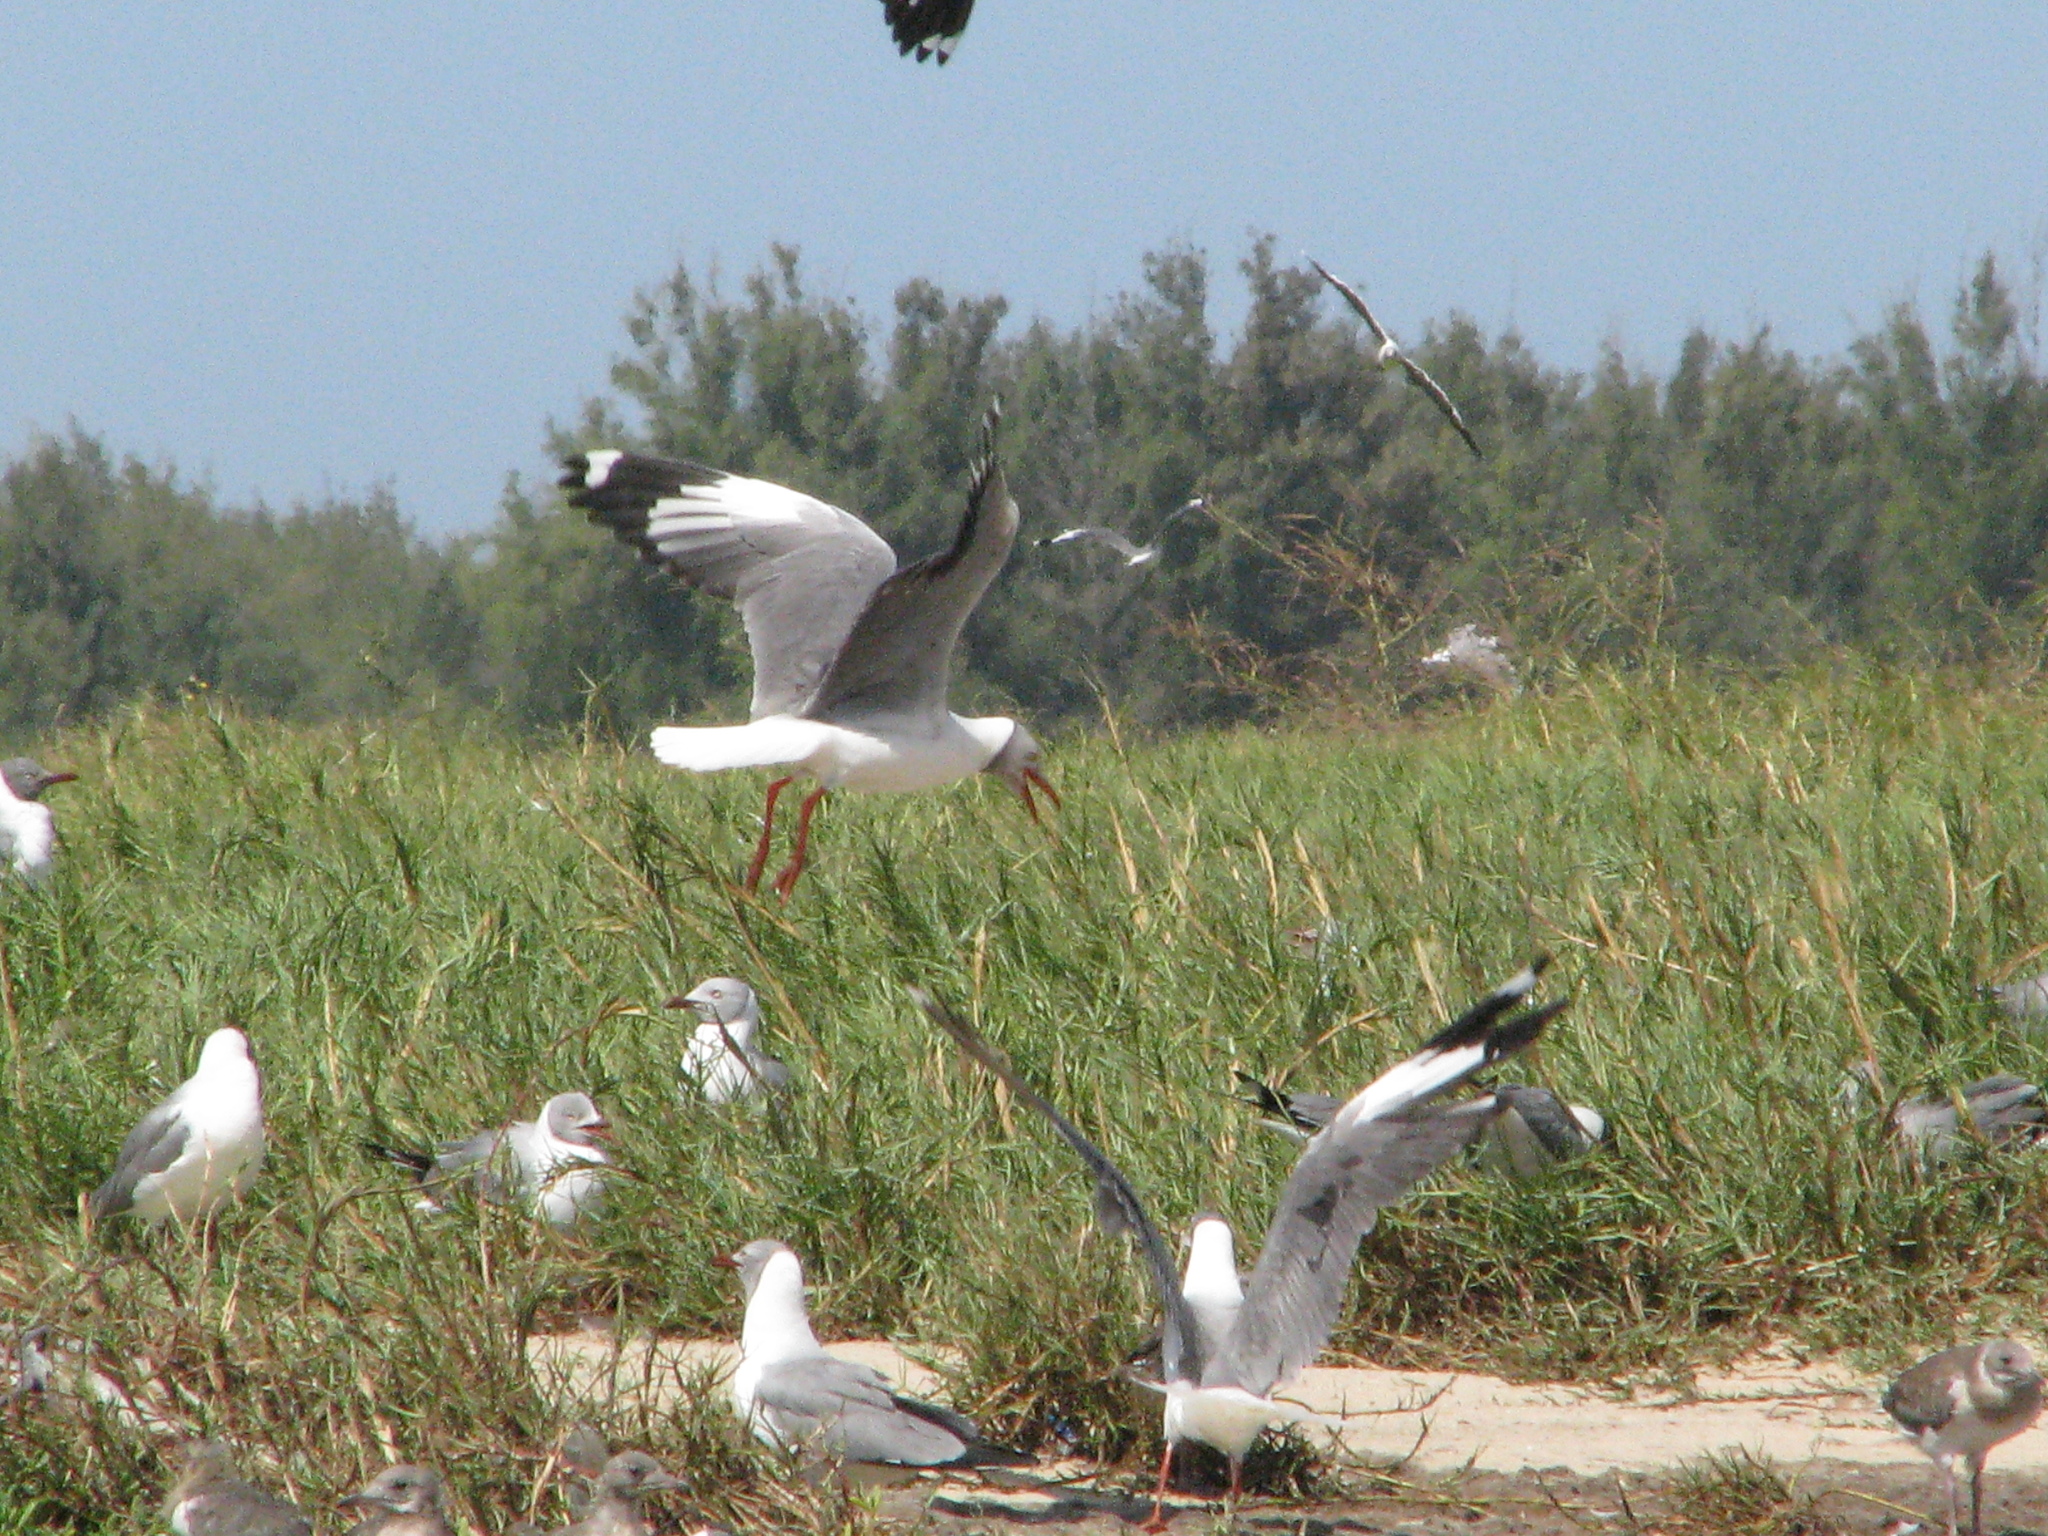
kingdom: Animalia
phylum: Chordata
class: Aves
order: Charadriiformes
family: Laridae
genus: Chroicocephalus
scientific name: Chroicocephalus cirrocephalus
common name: Grey-headed gull
